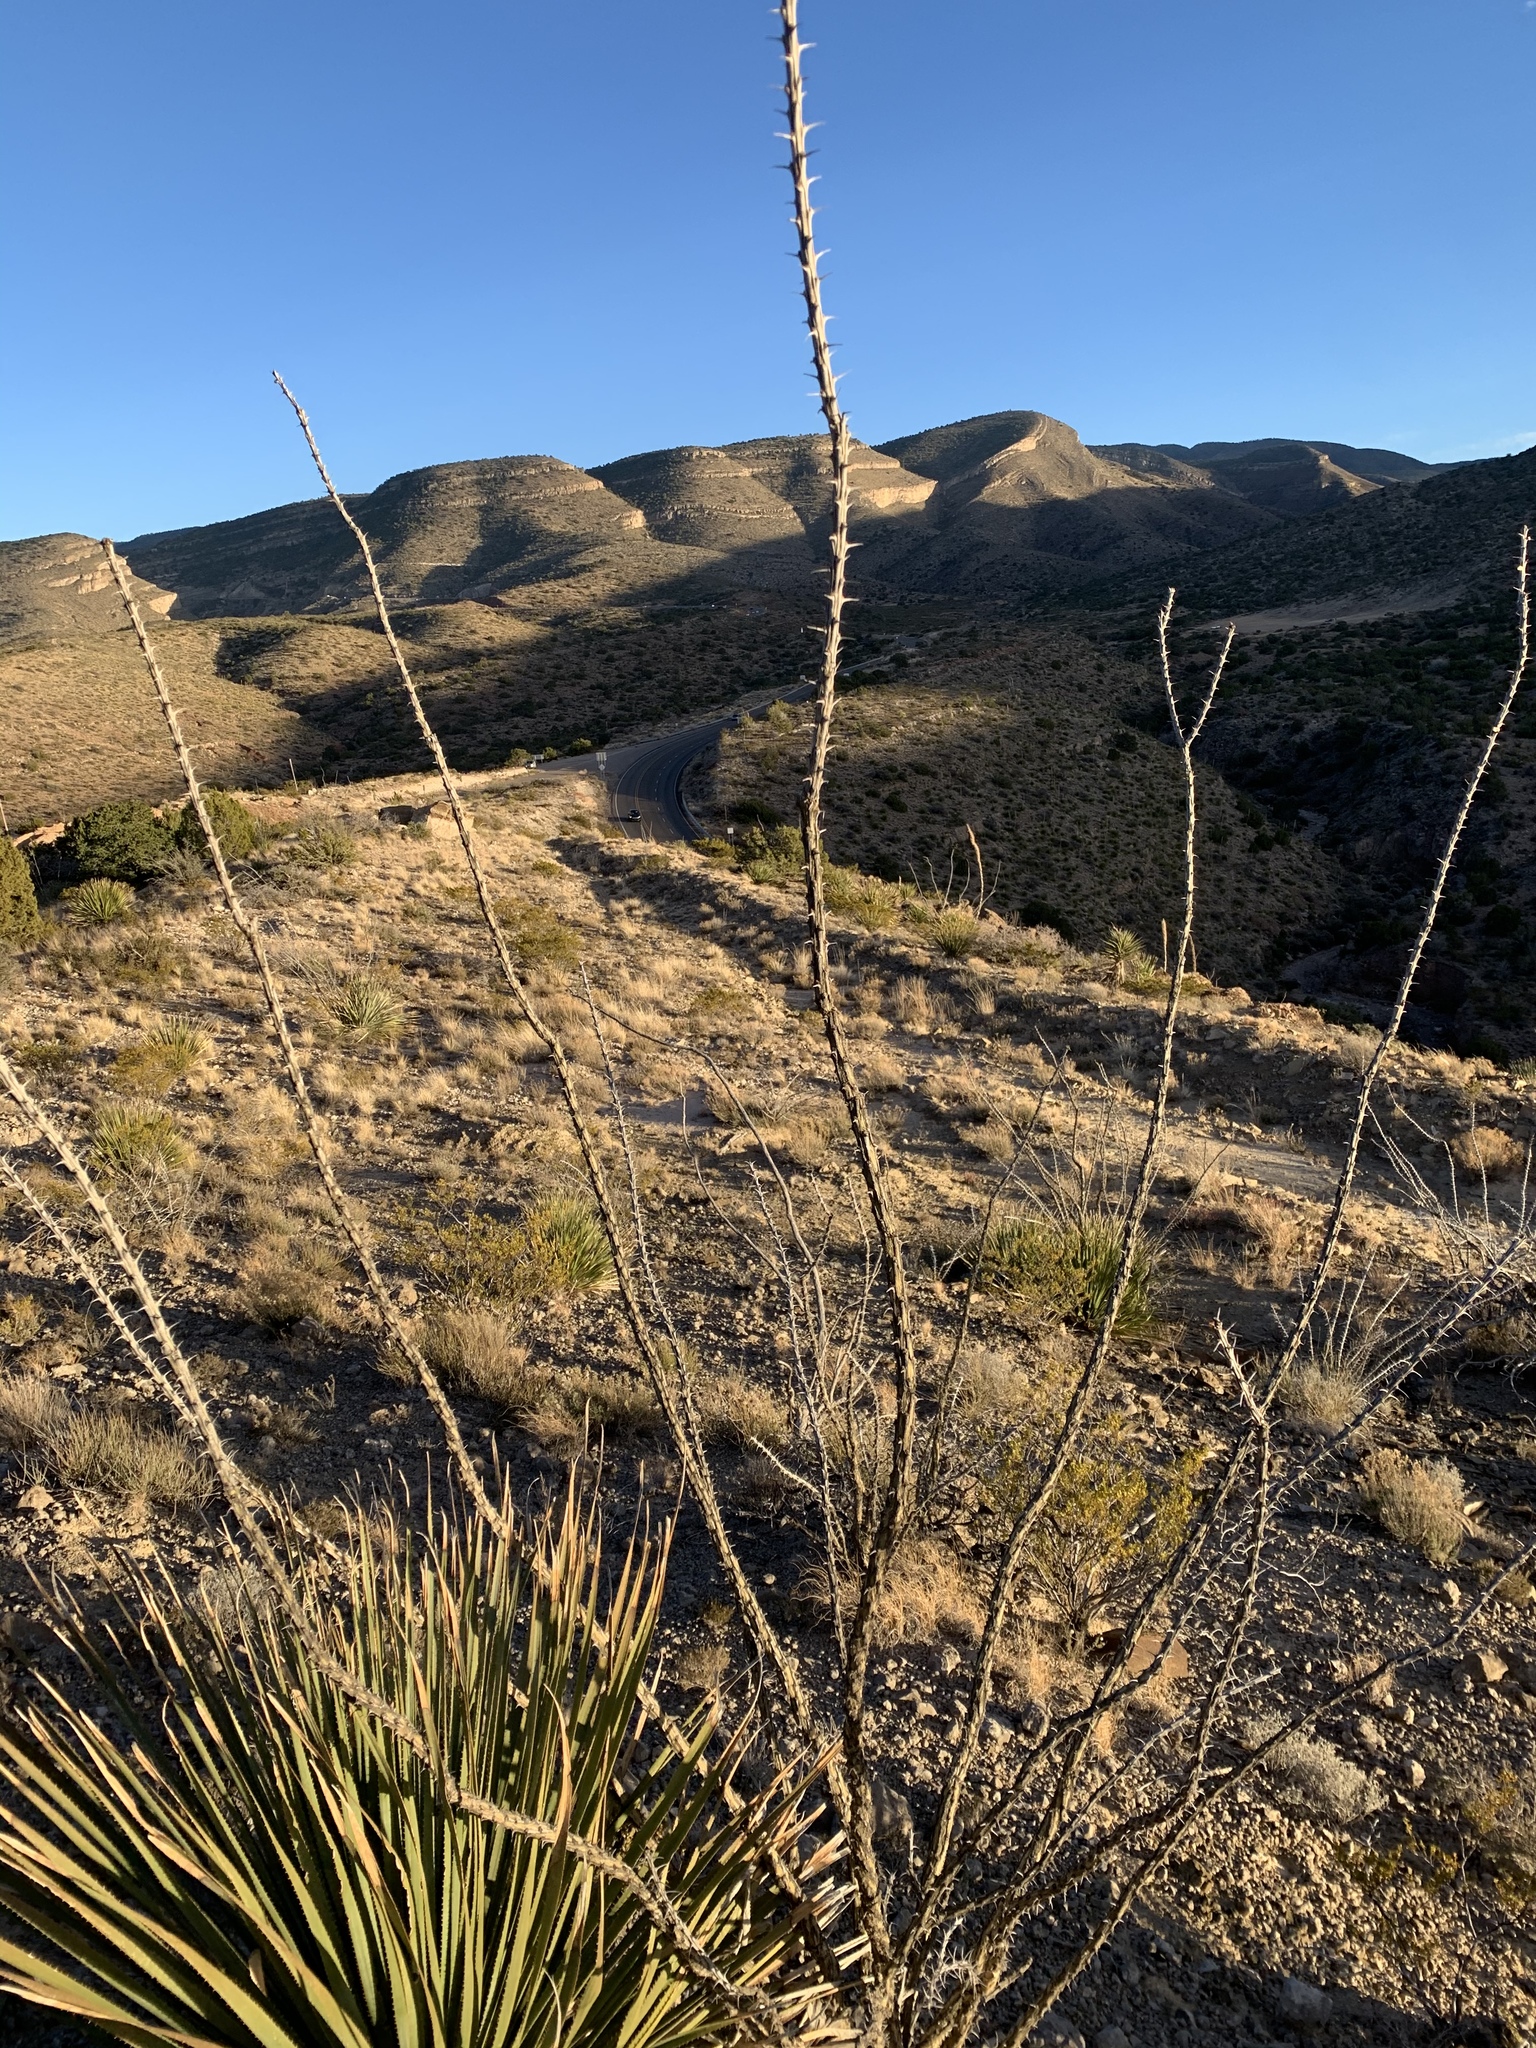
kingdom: Plantae
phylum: Tracheophyta
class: Magnoliopsida
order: Ericales
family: Fouquieriaceae
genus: Fouquieria
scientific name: Fouquieria splendens
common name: Vine-cactus
